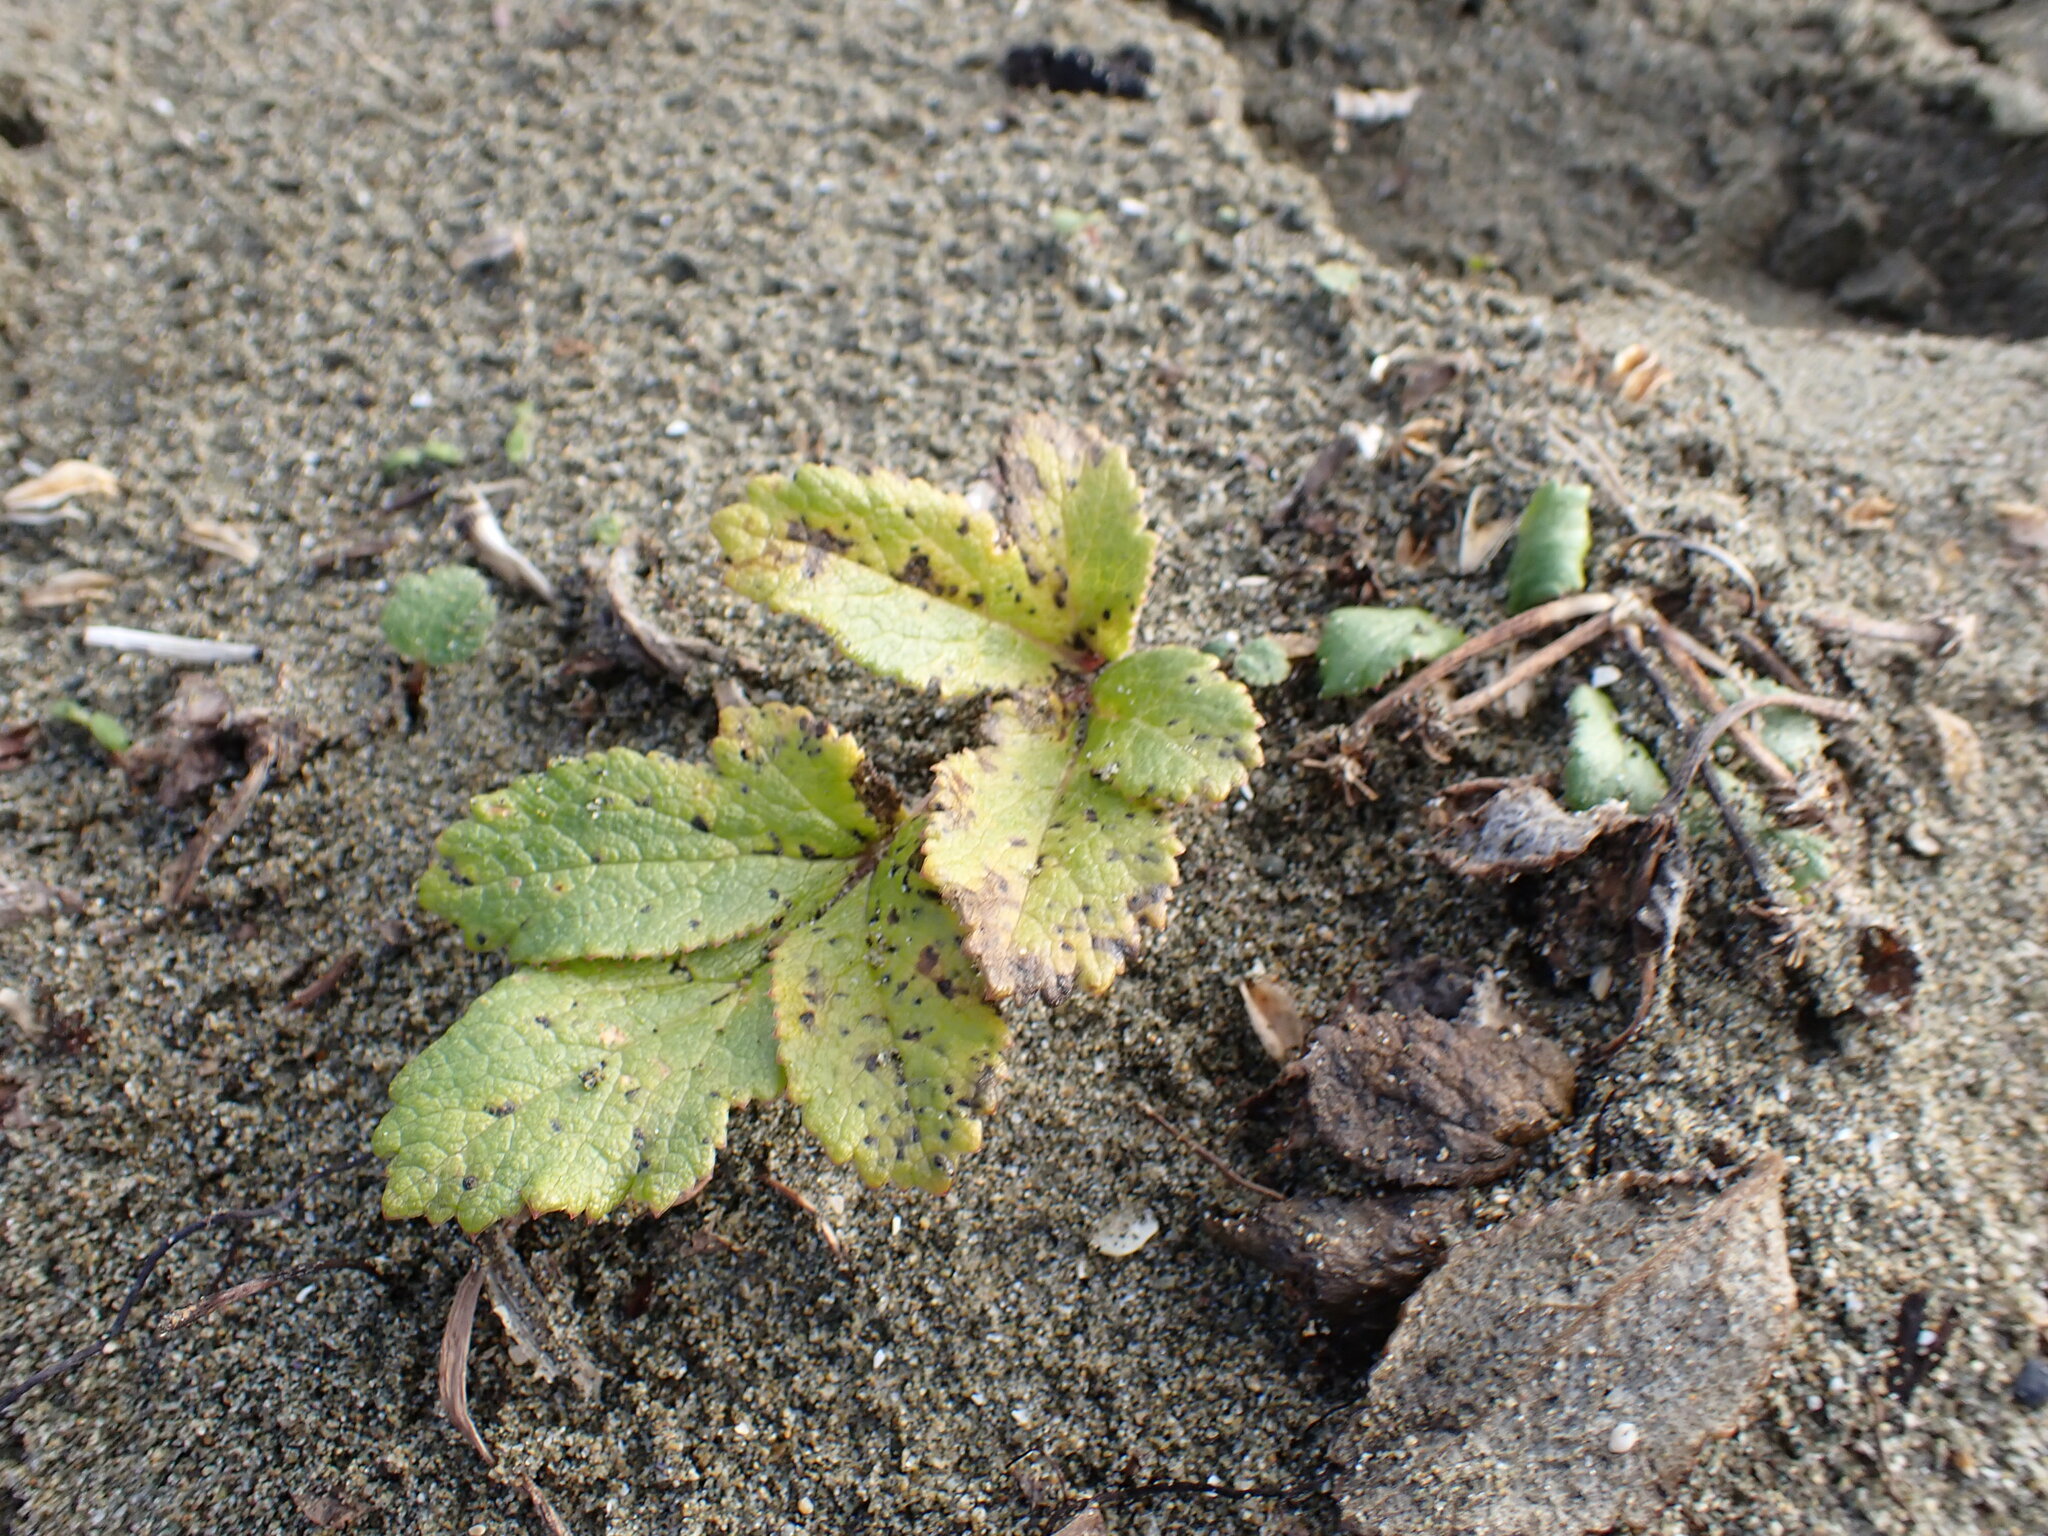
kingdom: Plantae
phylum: Tracheophyta
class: Magnoliopsida
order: Apiales
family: Apiaceae
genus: Glehnia
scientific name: Glehnia littoralis
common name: Beach silvertop
